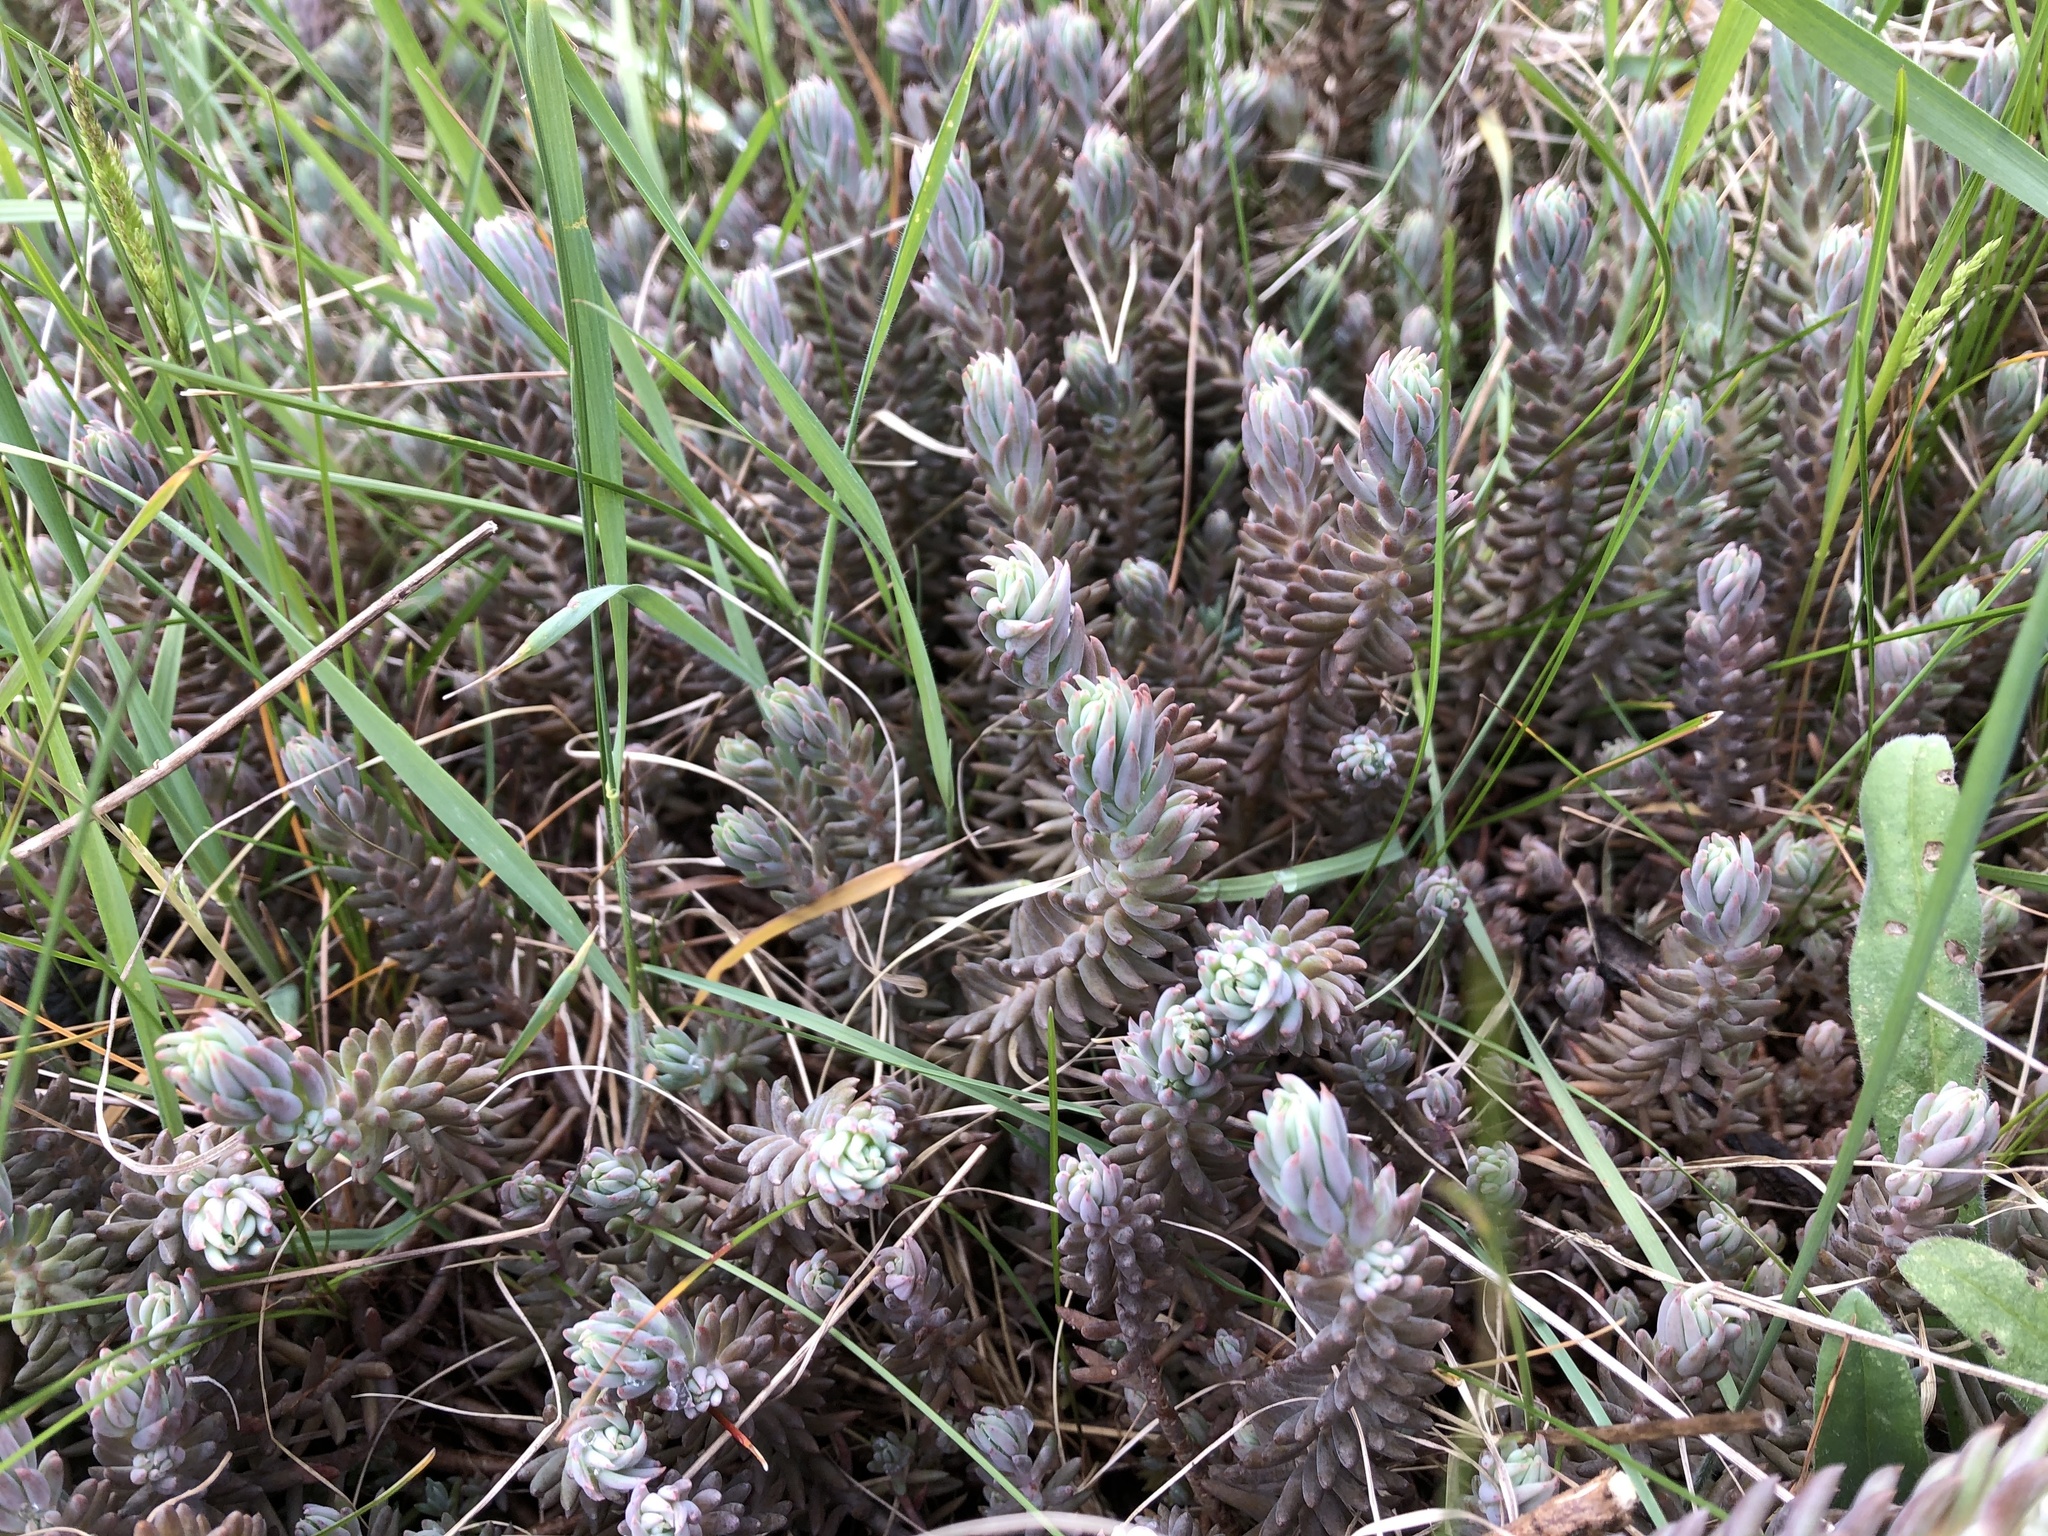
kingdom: Plantae
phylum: Tracheophyta
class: Magnoliopsida
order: Saxifragales
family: Crassulaceae
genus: Petrosedum
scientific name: Petrosedum
